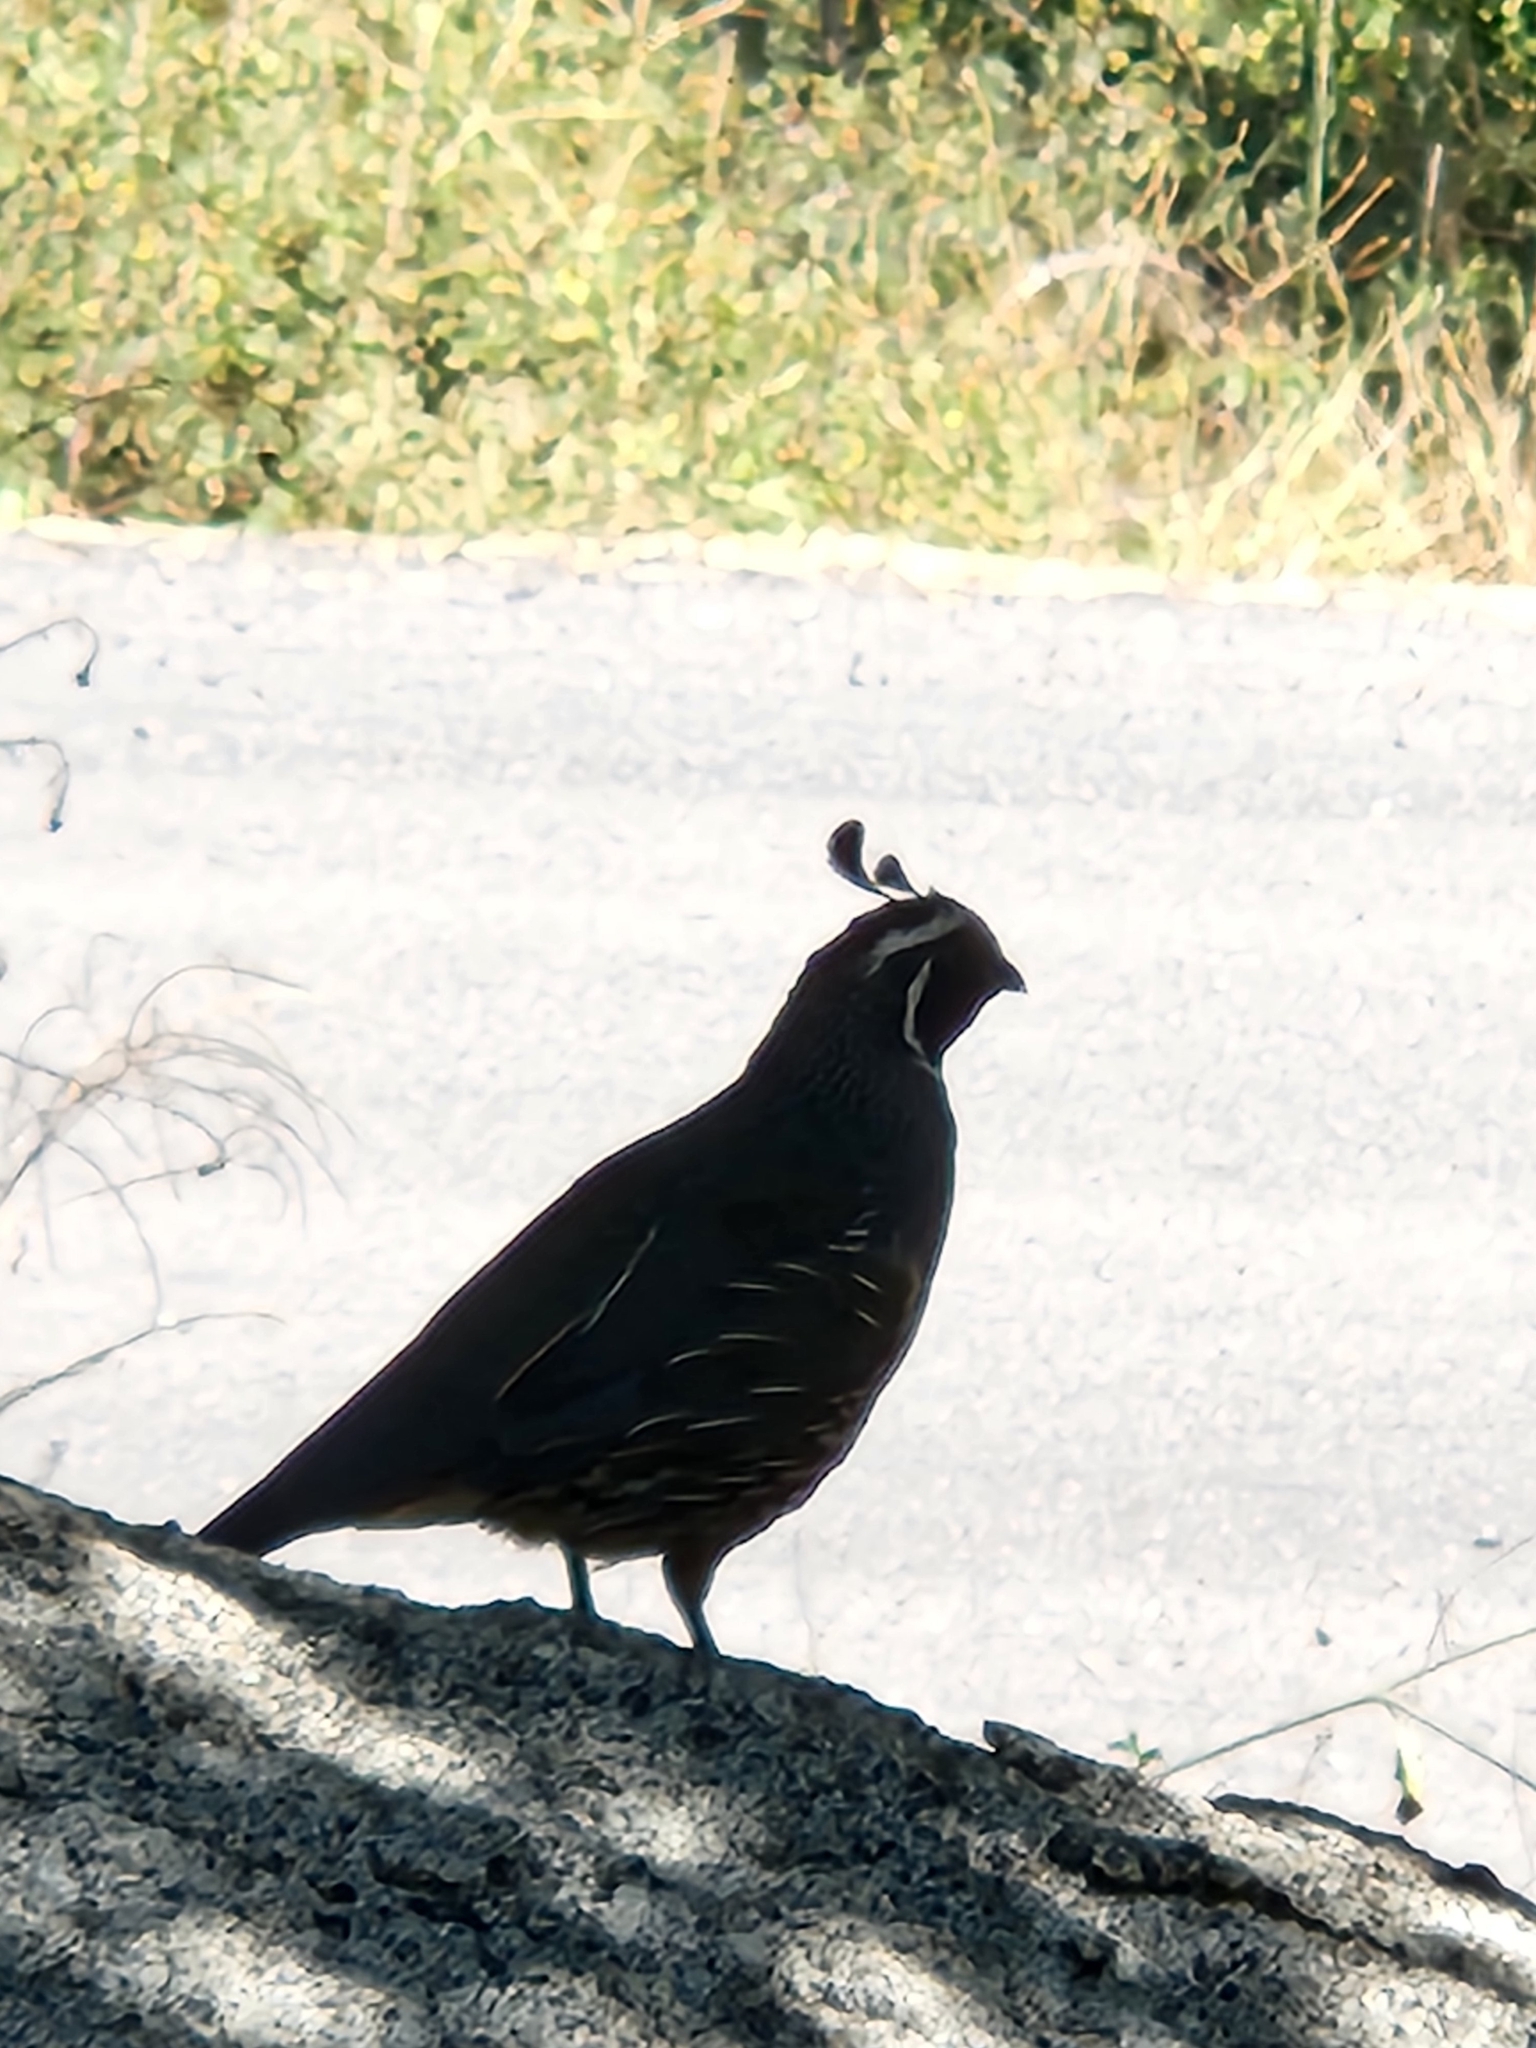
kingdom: Animalia
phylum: Chordata
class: Aves
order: Galliformes
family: Odontophoridae
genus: Callipepla
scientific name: Callipepla californica
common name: California quail
